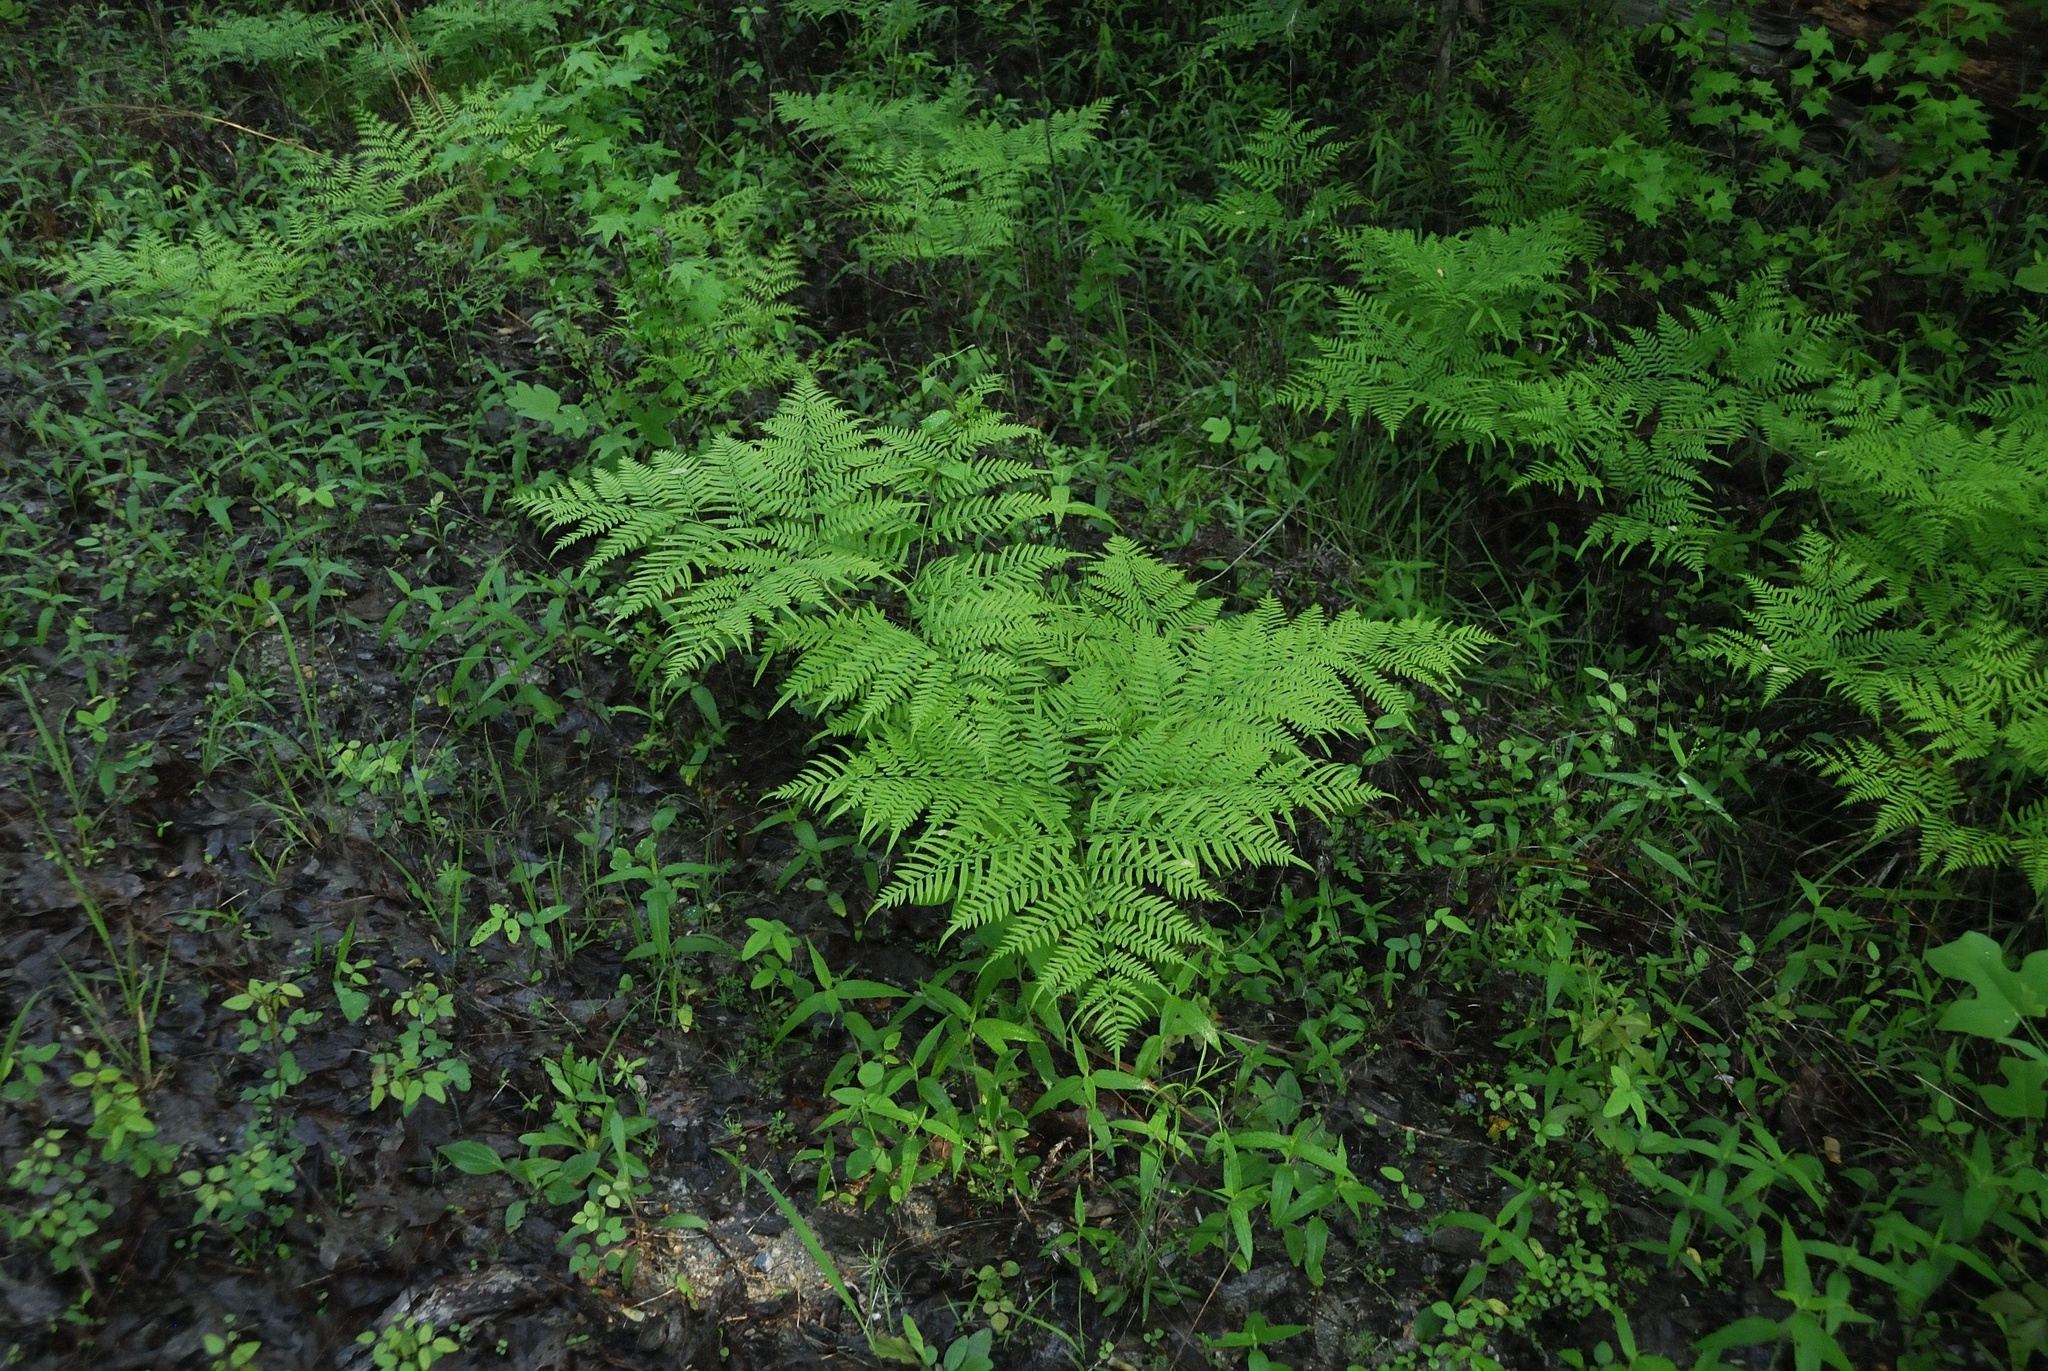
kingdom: Plantae
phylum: Tracheophyta
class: Polypodiopsida
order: Polypodiales
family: Dennstaedtiaceae
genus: Pteridium
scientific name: Pteridium aquilinum
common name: Bracken
